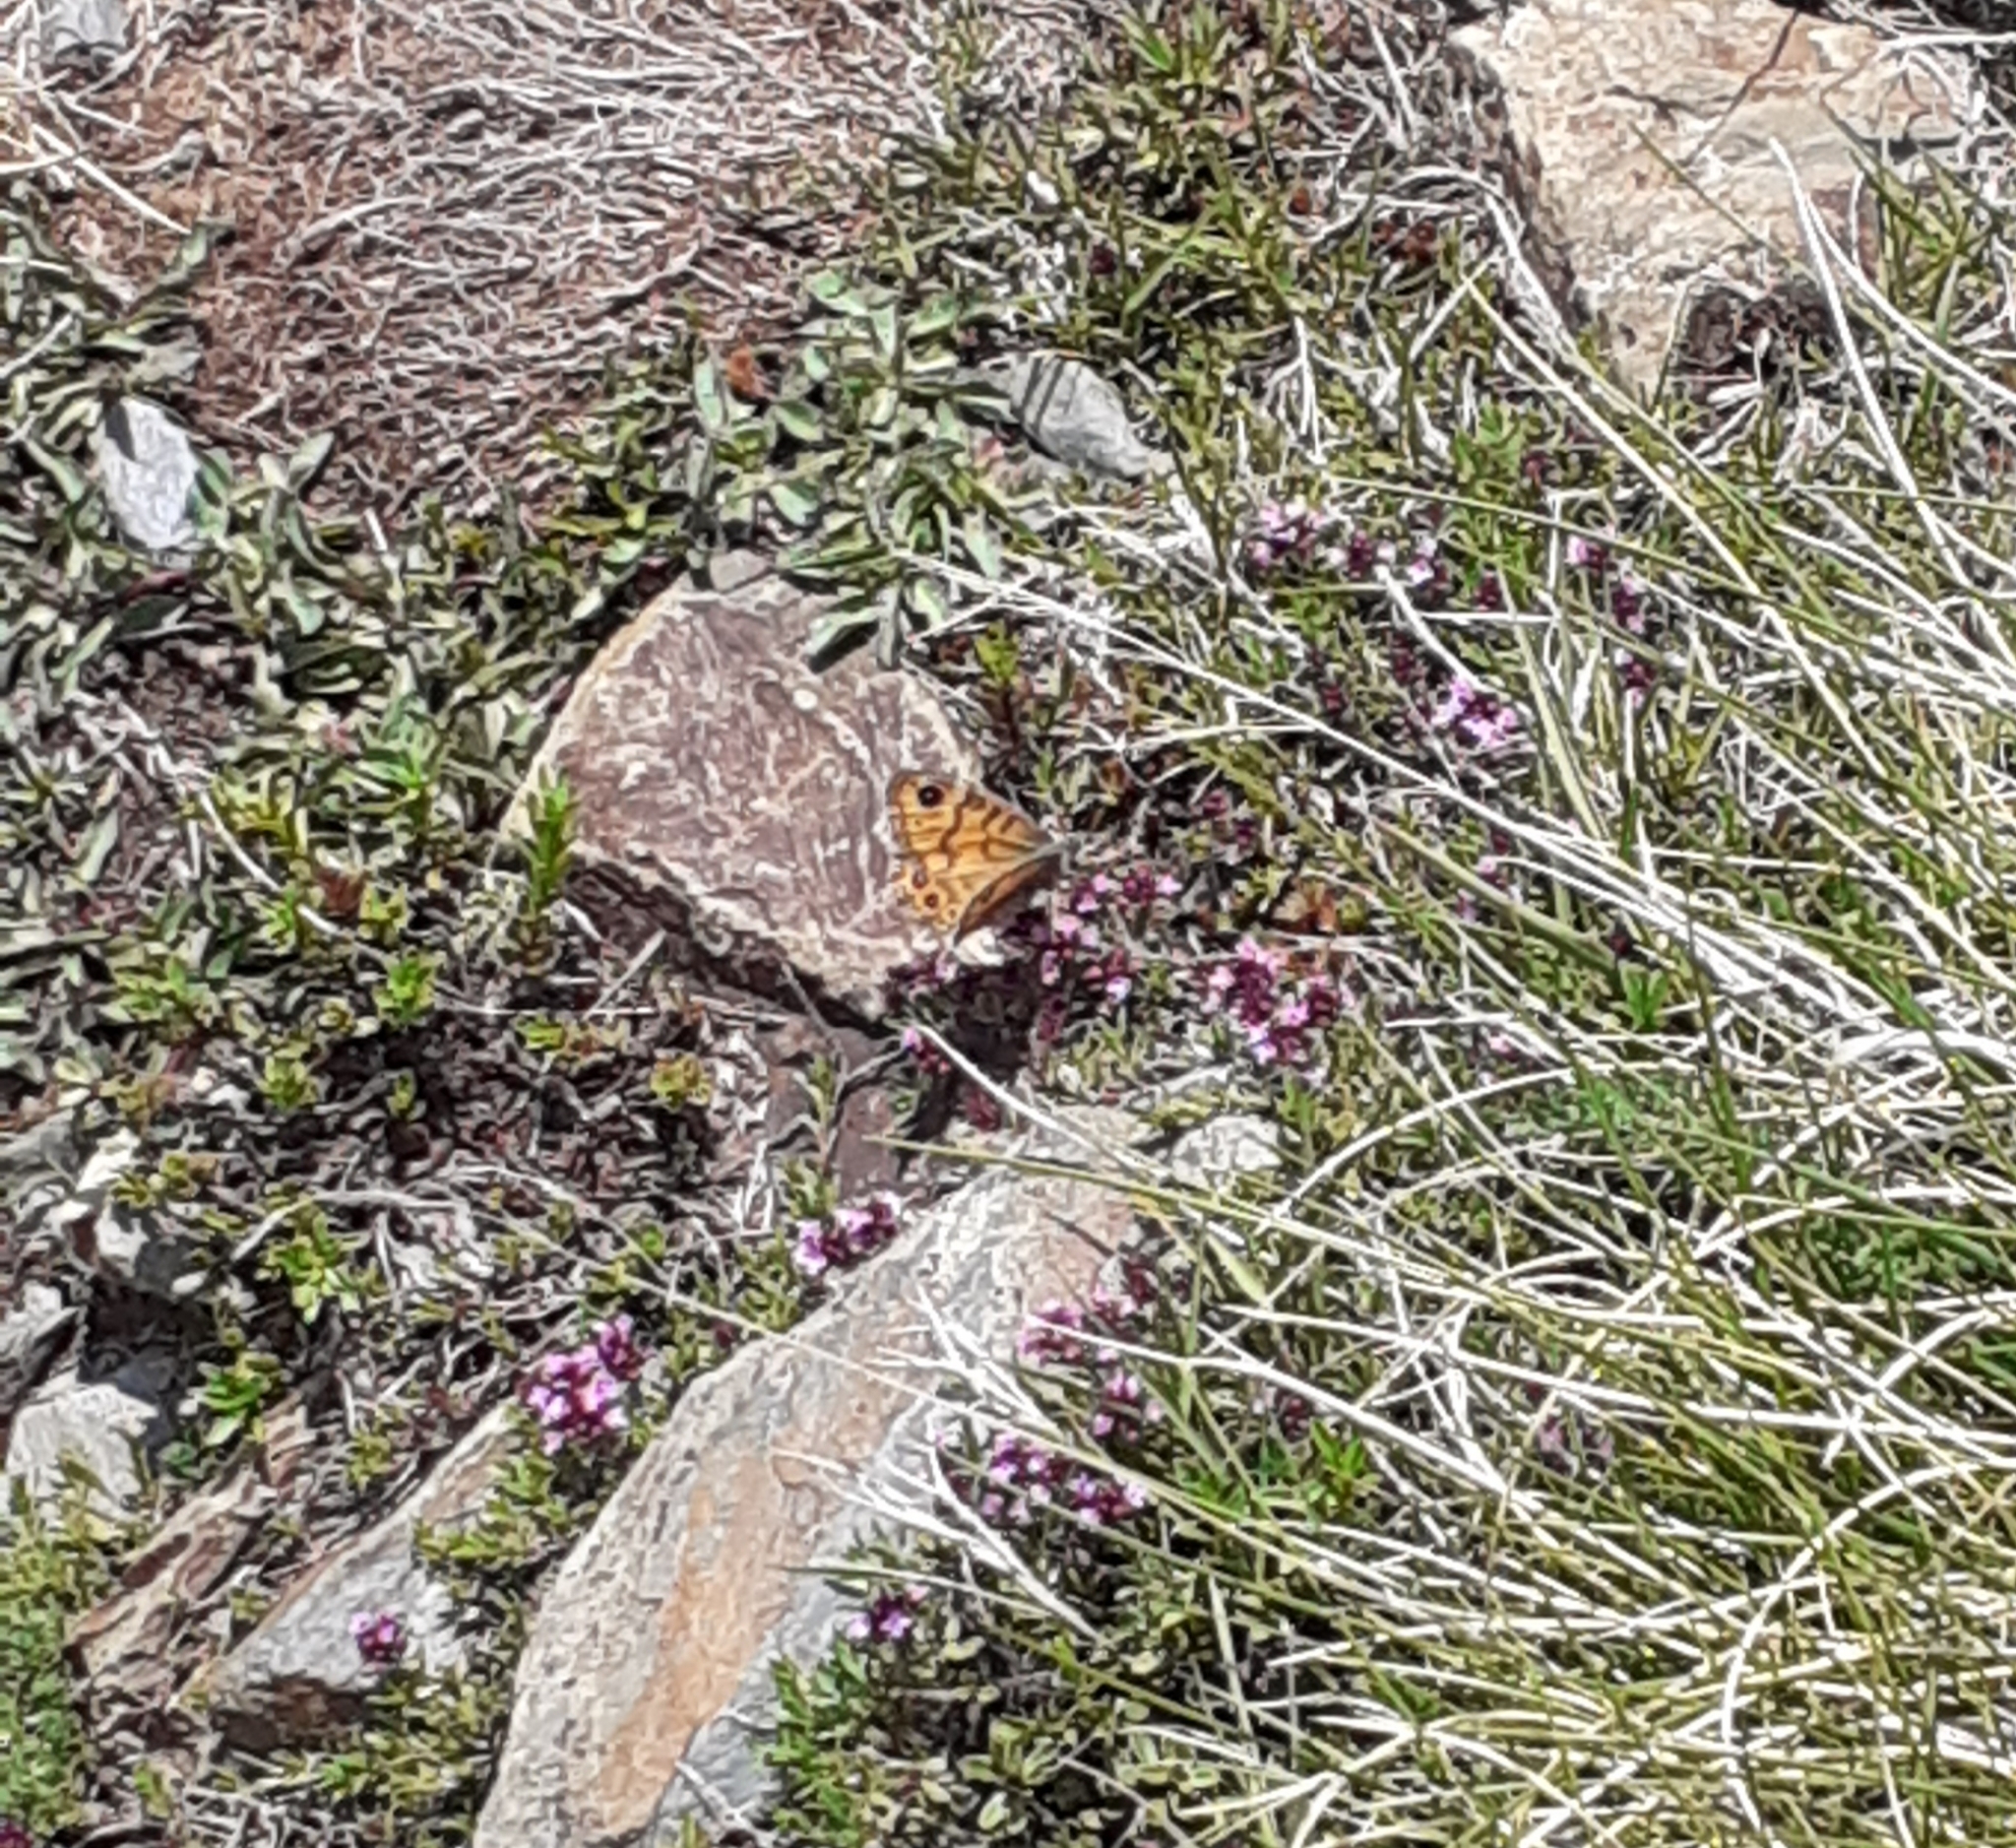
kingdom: Animalia
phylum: Arthropoda
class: Insecta
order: Lepidoptera
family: Nymphalidae
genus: Pararge
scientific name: Pararge Lasiommata megera
